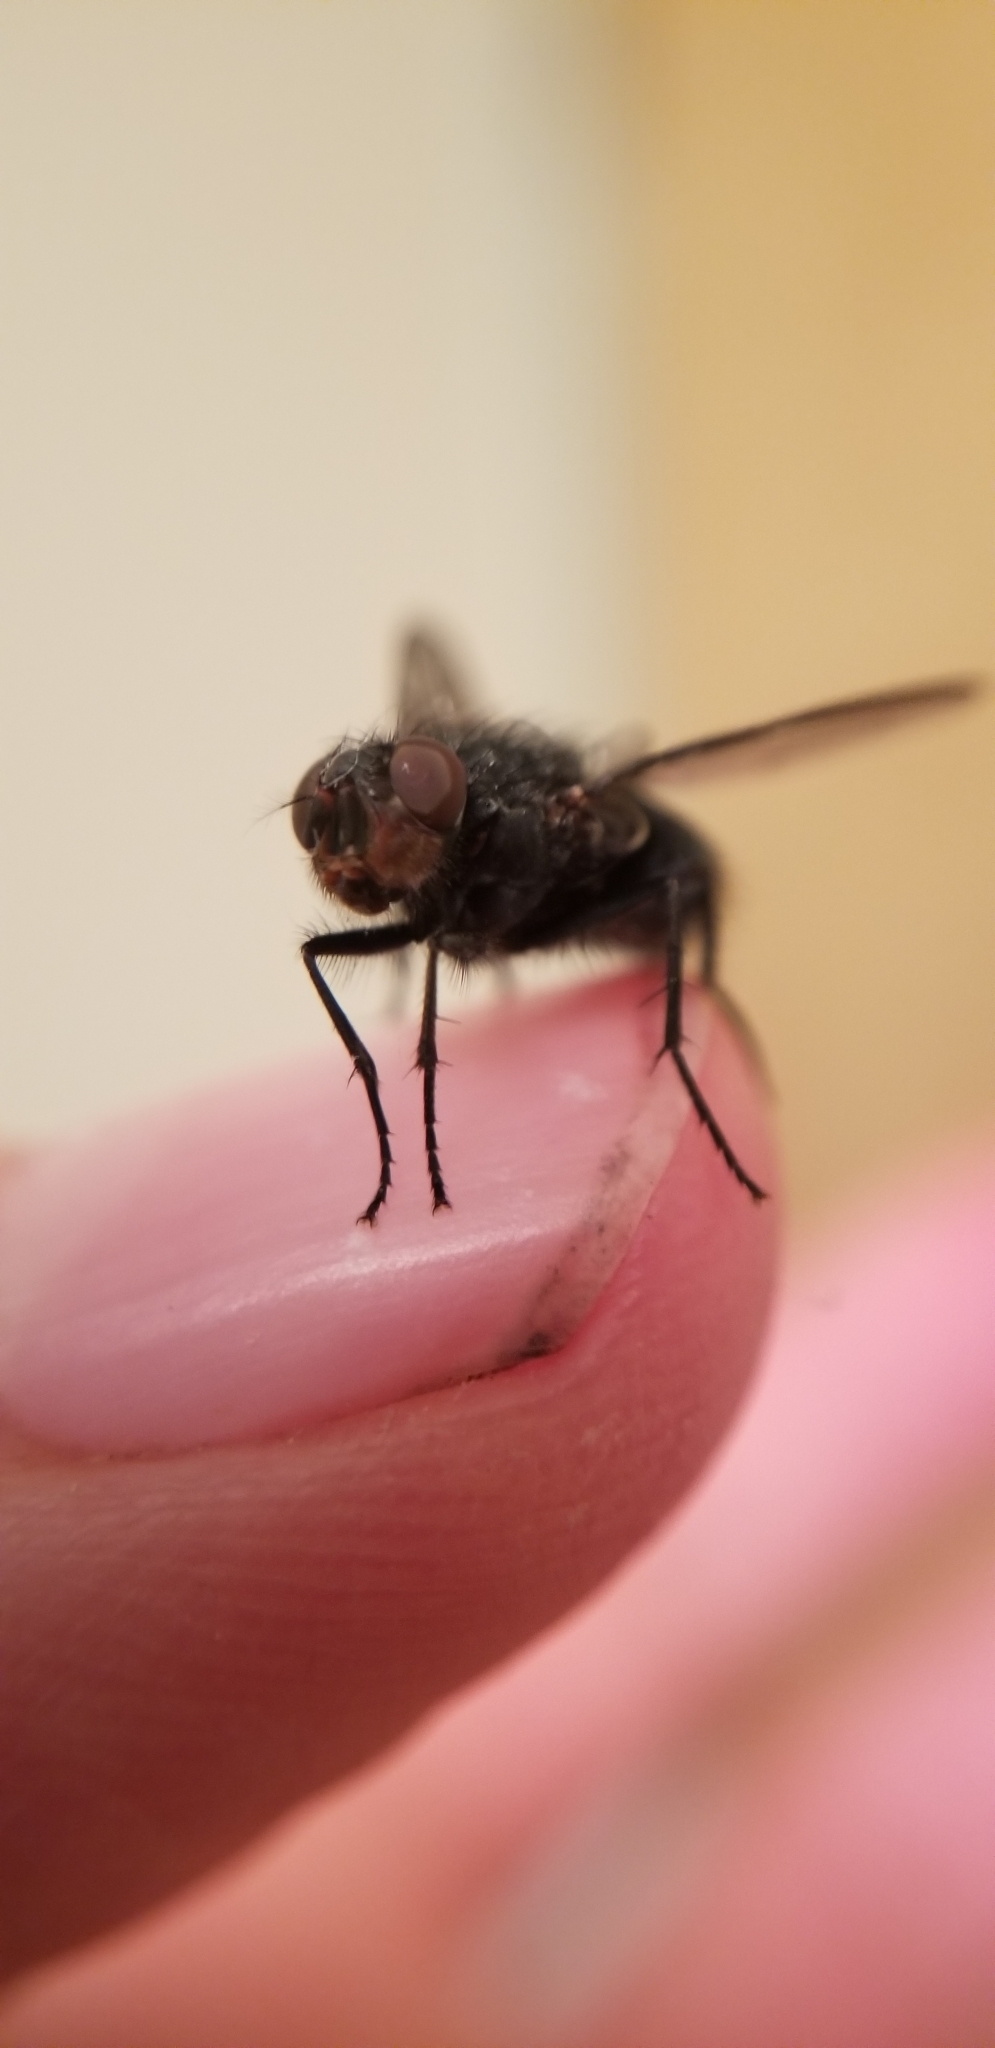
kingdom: Animalia
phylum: Arthropoda
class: Insecta
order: Diptera
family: Calliphoridae
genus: Calliphora
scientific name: Calliphora vicina
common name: Common blow flie
